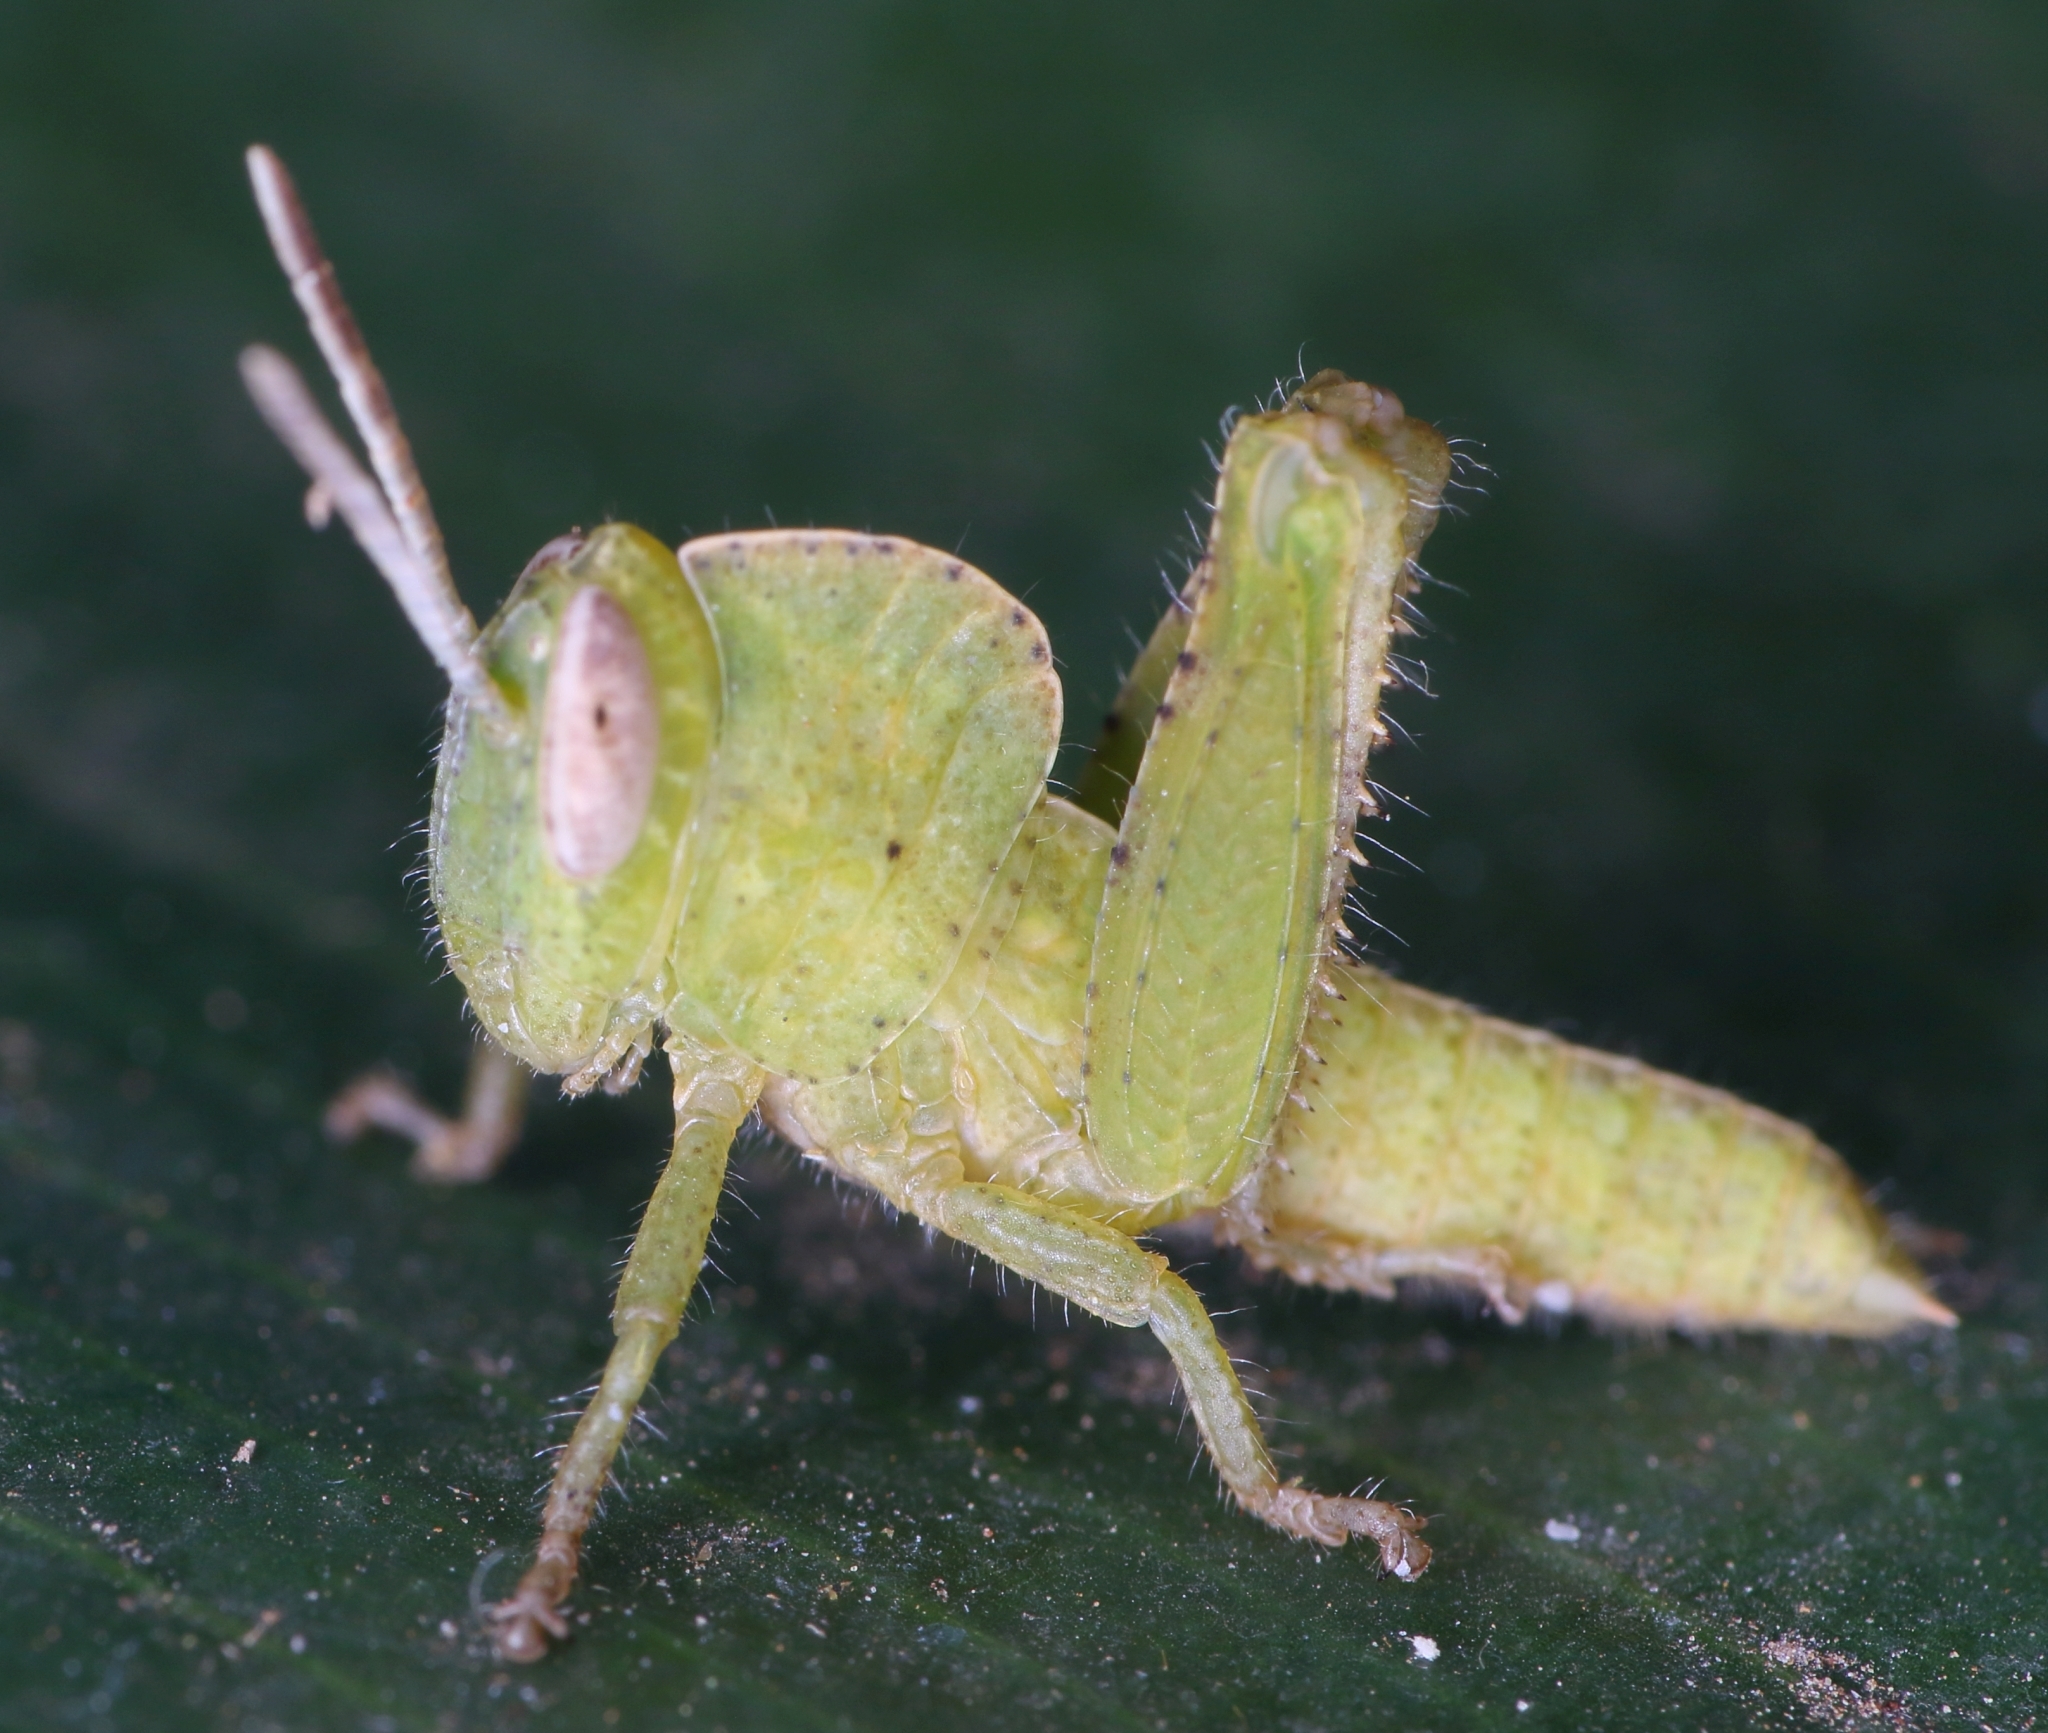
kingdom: Animalia
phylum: Arthropoda
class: Insecta
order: Orthoptera
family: Acrididae
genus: Abisares
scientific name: Abisares viridipenne
